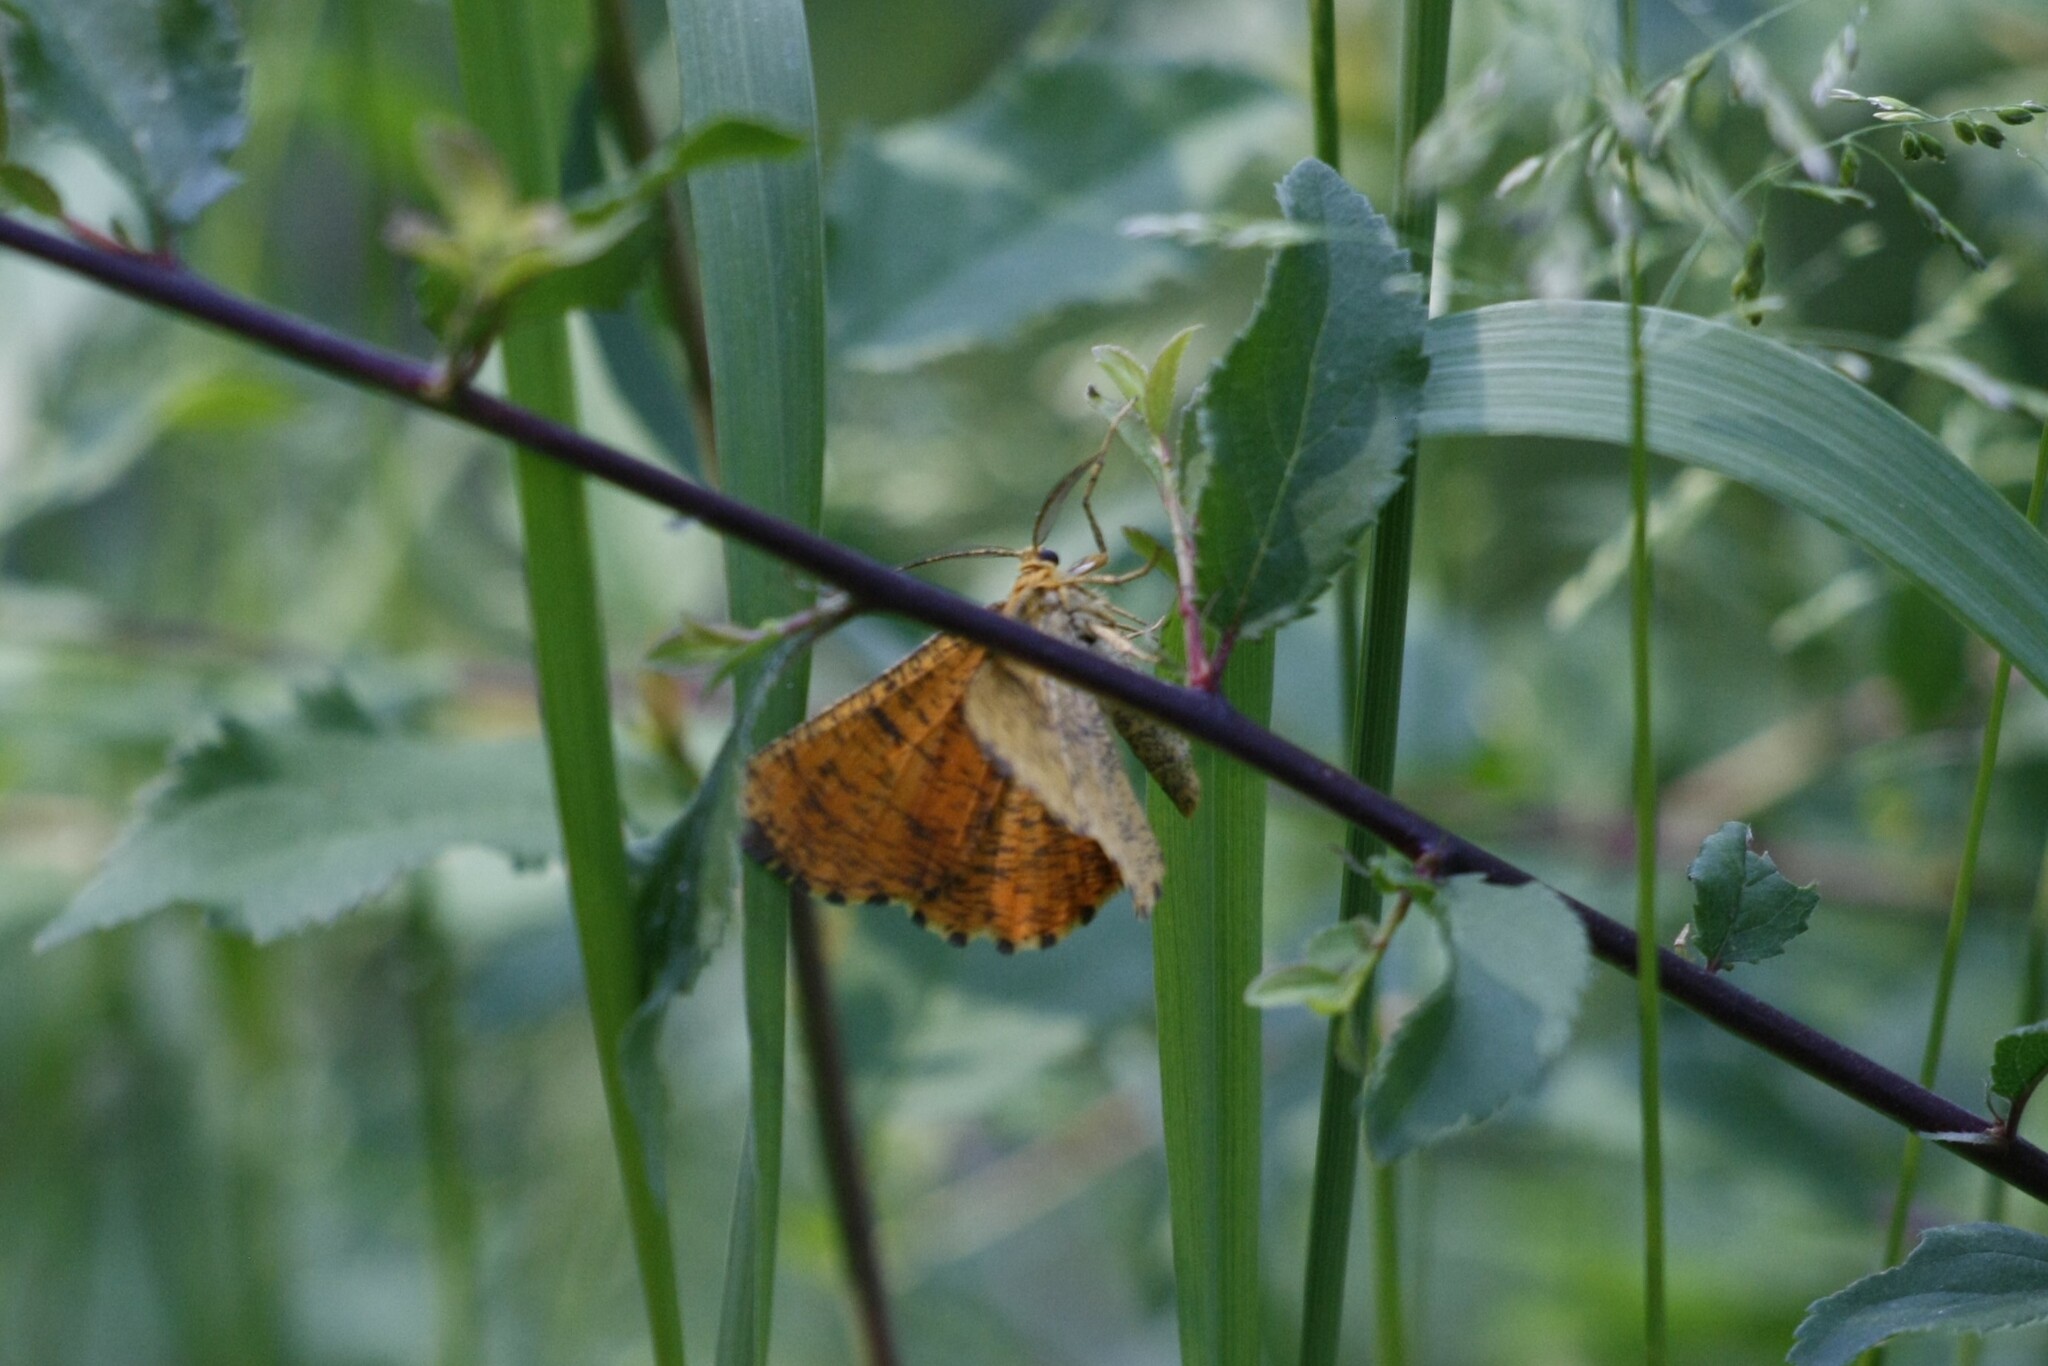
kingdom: Animalia
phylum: Arthropoda
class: Insecta
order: Lepidoptera
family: Geometridae
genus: Angerona
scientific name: Angerona prunaria
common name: Orange moth
